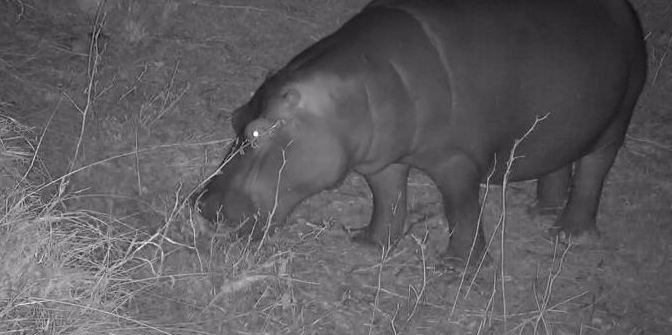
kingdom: Animalia
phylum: Chordata
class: Mammalia
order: Artiodactyla
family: Hippopotamidae
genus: Hippopotamus
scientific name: Hippopotamus amphibius
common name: Common hippopotamus
